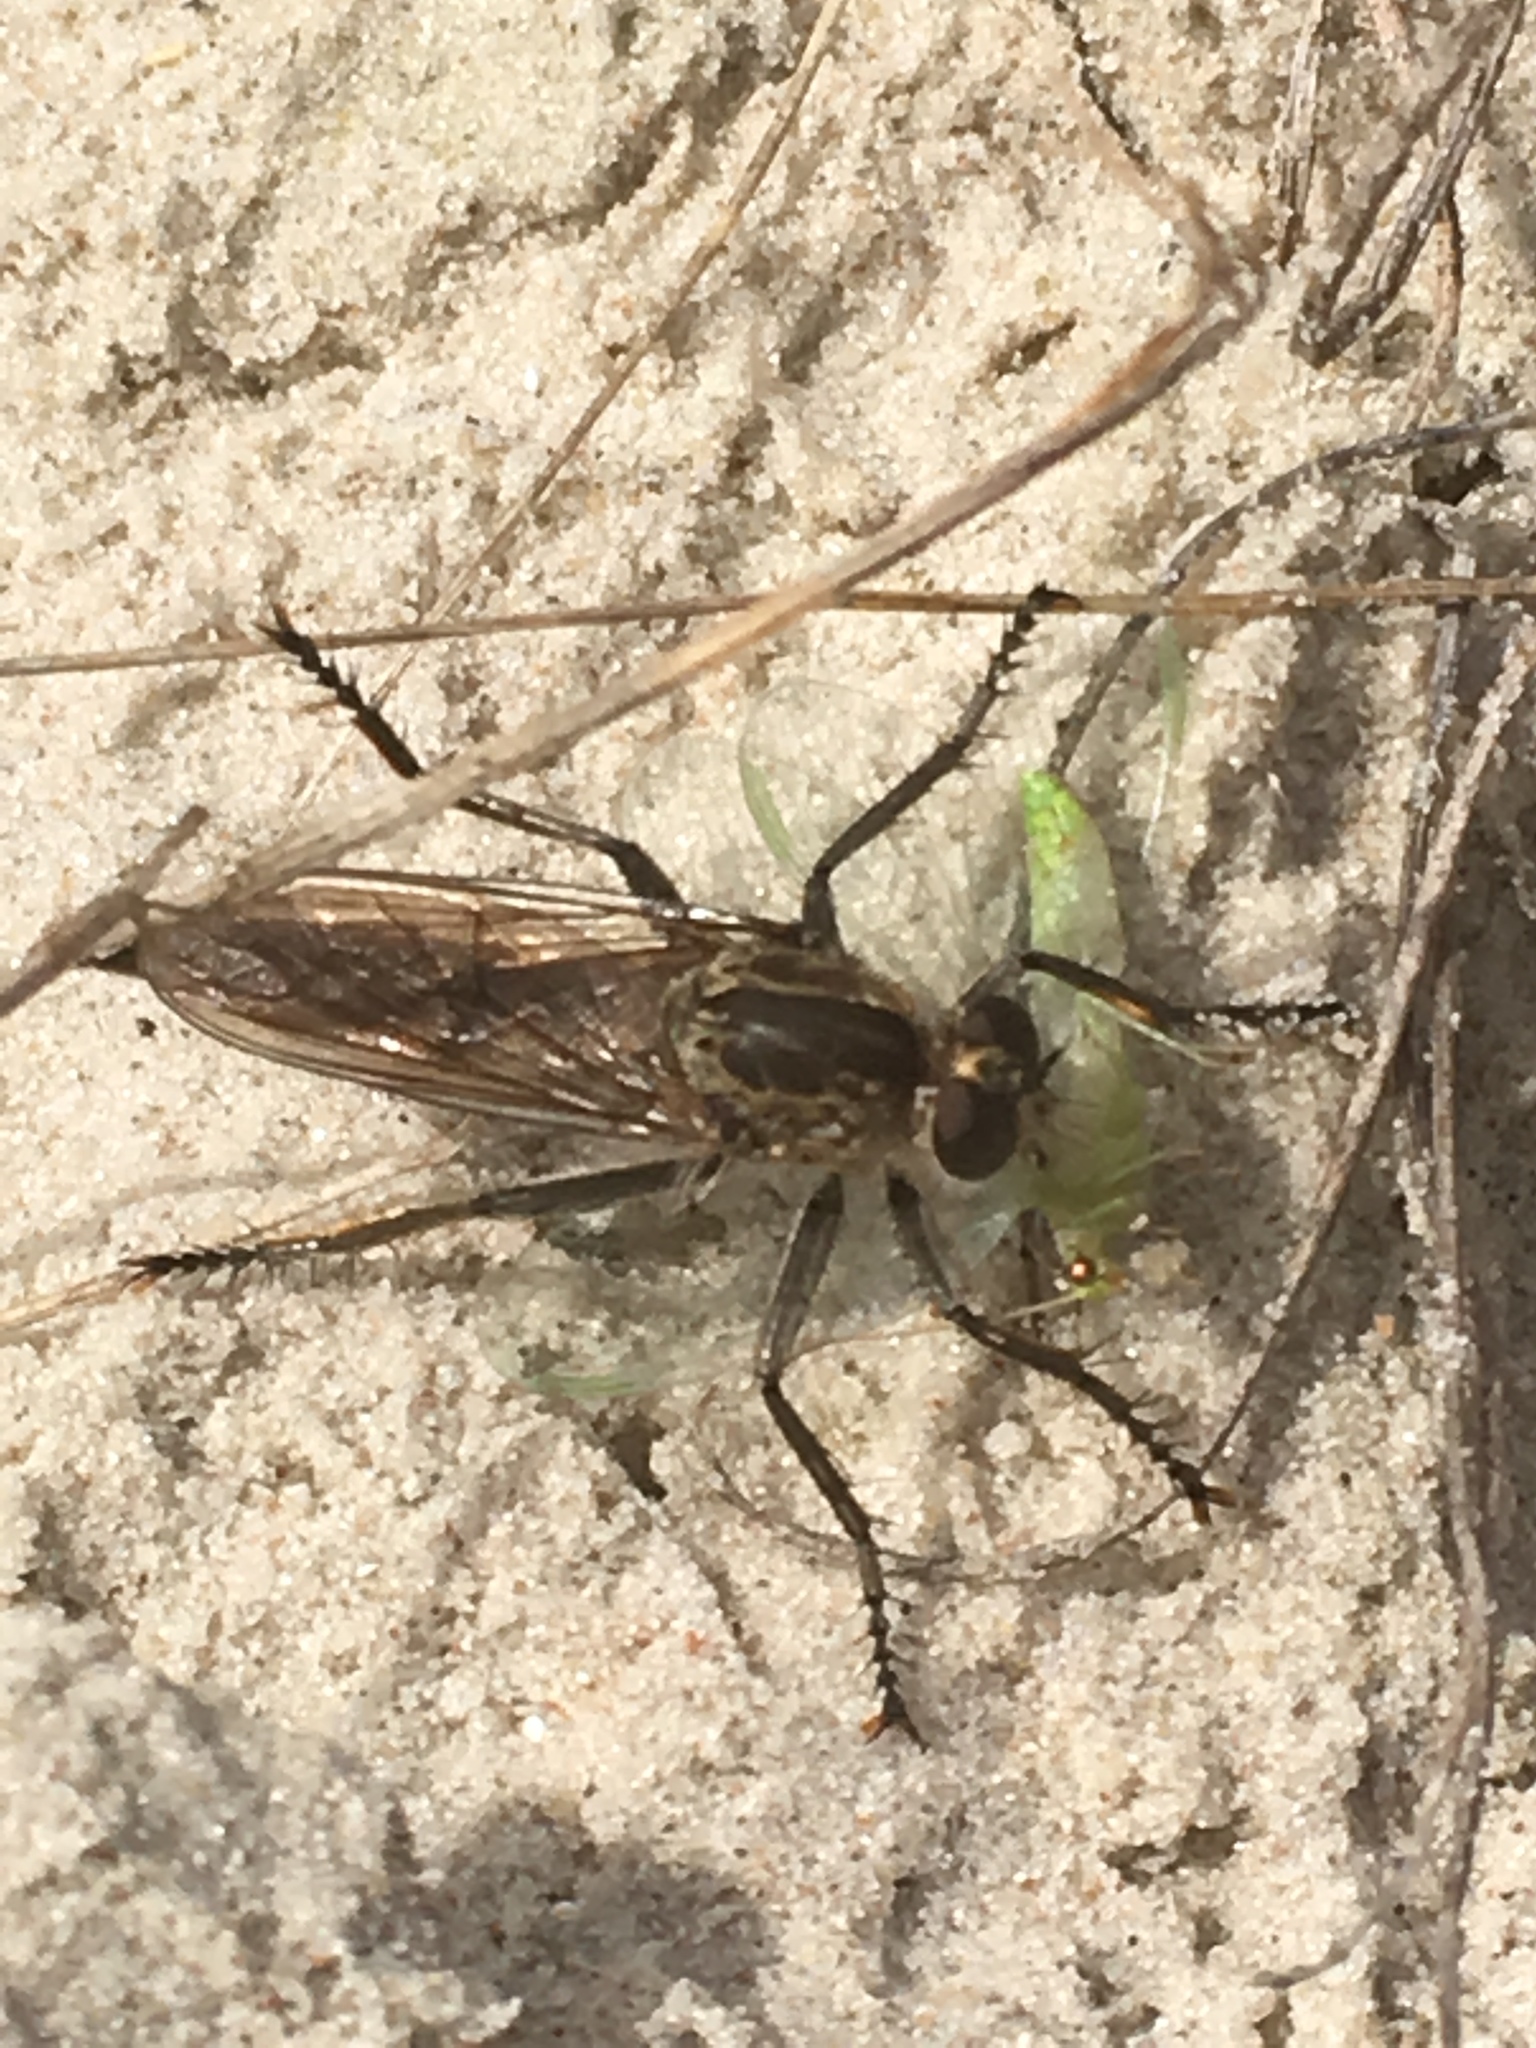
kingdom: Animalia
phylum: Arthropoda
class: Insecta
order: Diptera
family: Asilidae
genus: Philonicus
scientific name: Philonicus albiceps
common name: Dune robberfly
